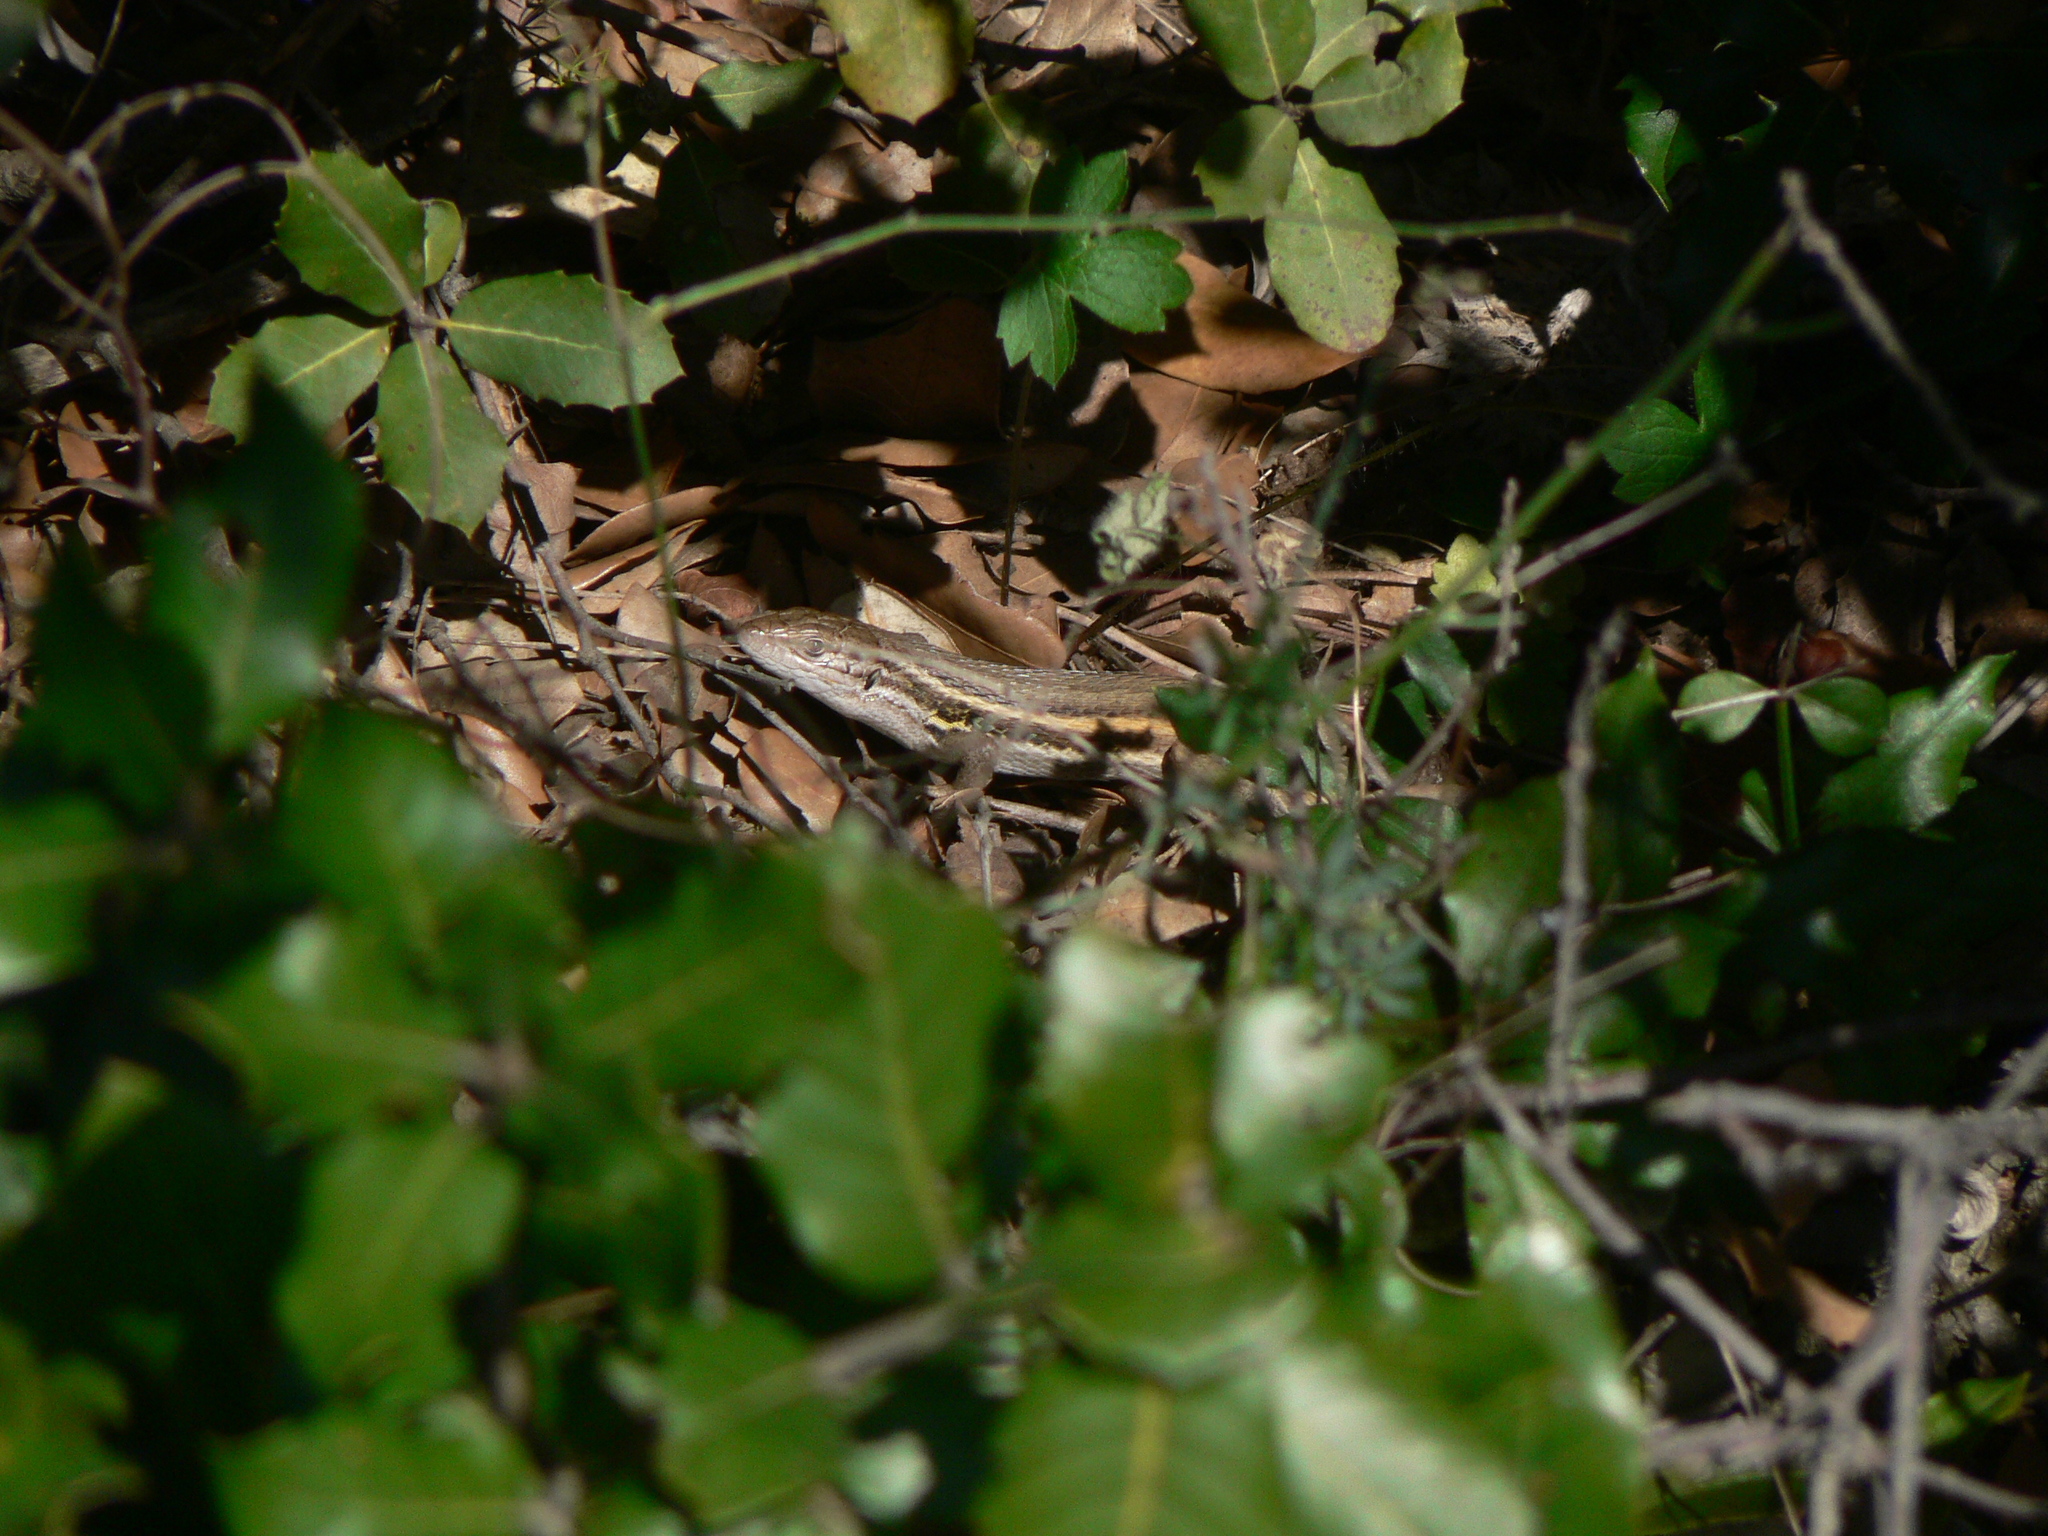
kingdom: Animalia
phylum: Chordata
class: Squamata
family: Lacertidae
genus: Psammodromus
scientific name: Psammodromus algirus
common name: Algerian psammodromus
